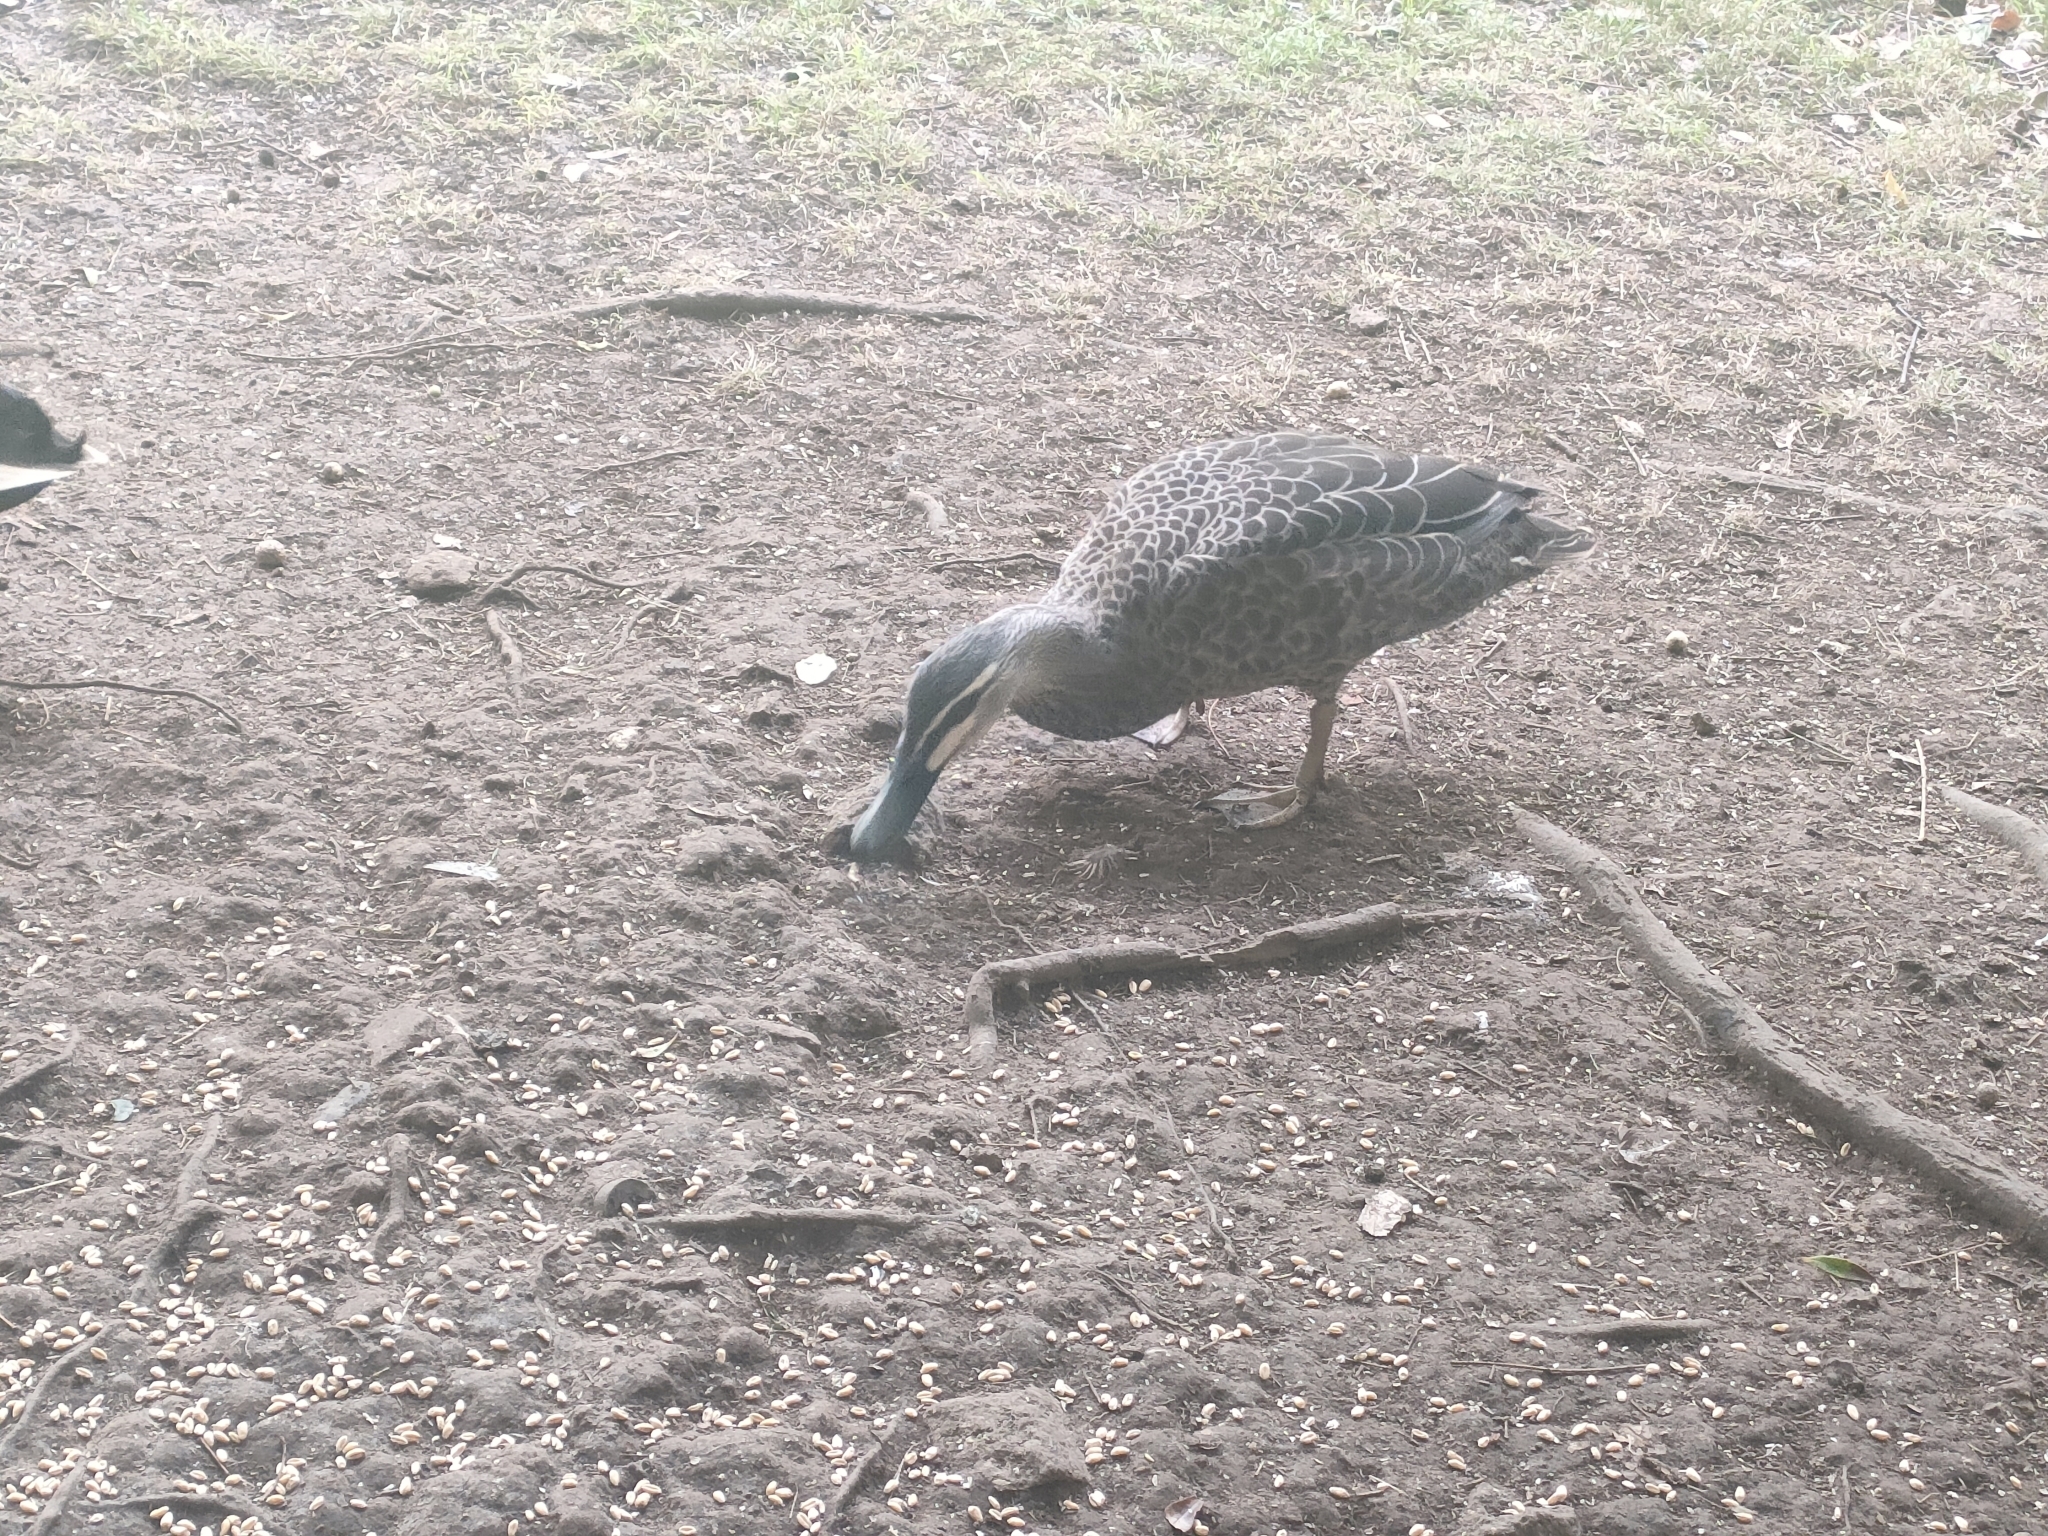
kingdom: Animalia
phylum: Chordata
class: Aves
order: Anseriformes
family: Anatidae
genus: Anas
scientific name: Anas superciliosa
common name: Pacific black duck
